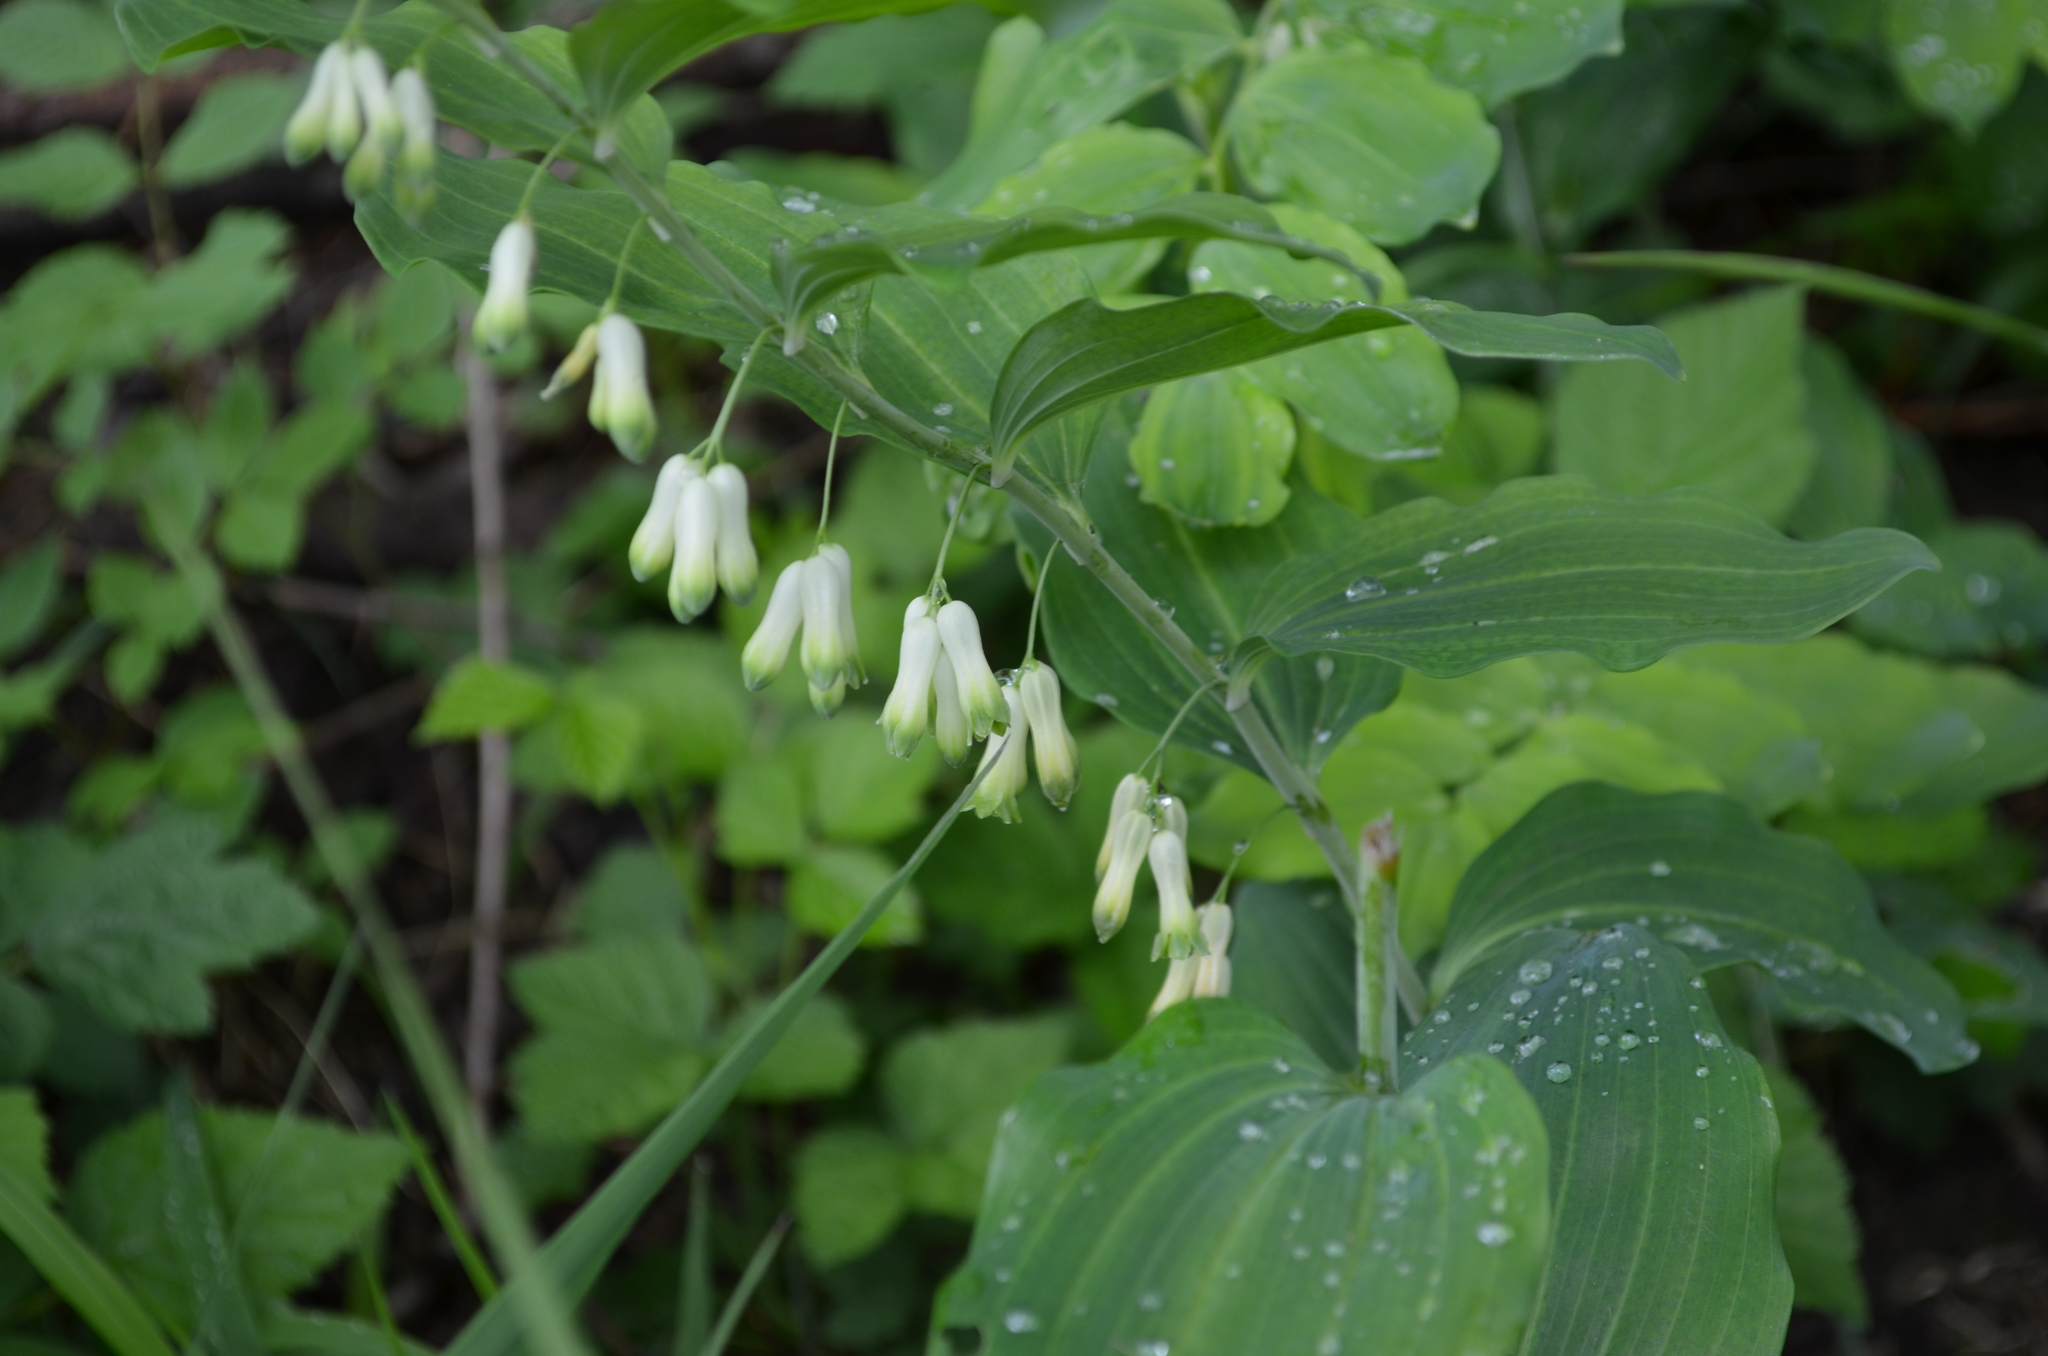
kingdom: Plantae
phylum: Tracheophyta
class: Liliopsida
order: Asparagales
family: Asparagaceae
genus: Polygonatum
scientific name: Polygonatum multiflorum
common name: Solomon's-seal
